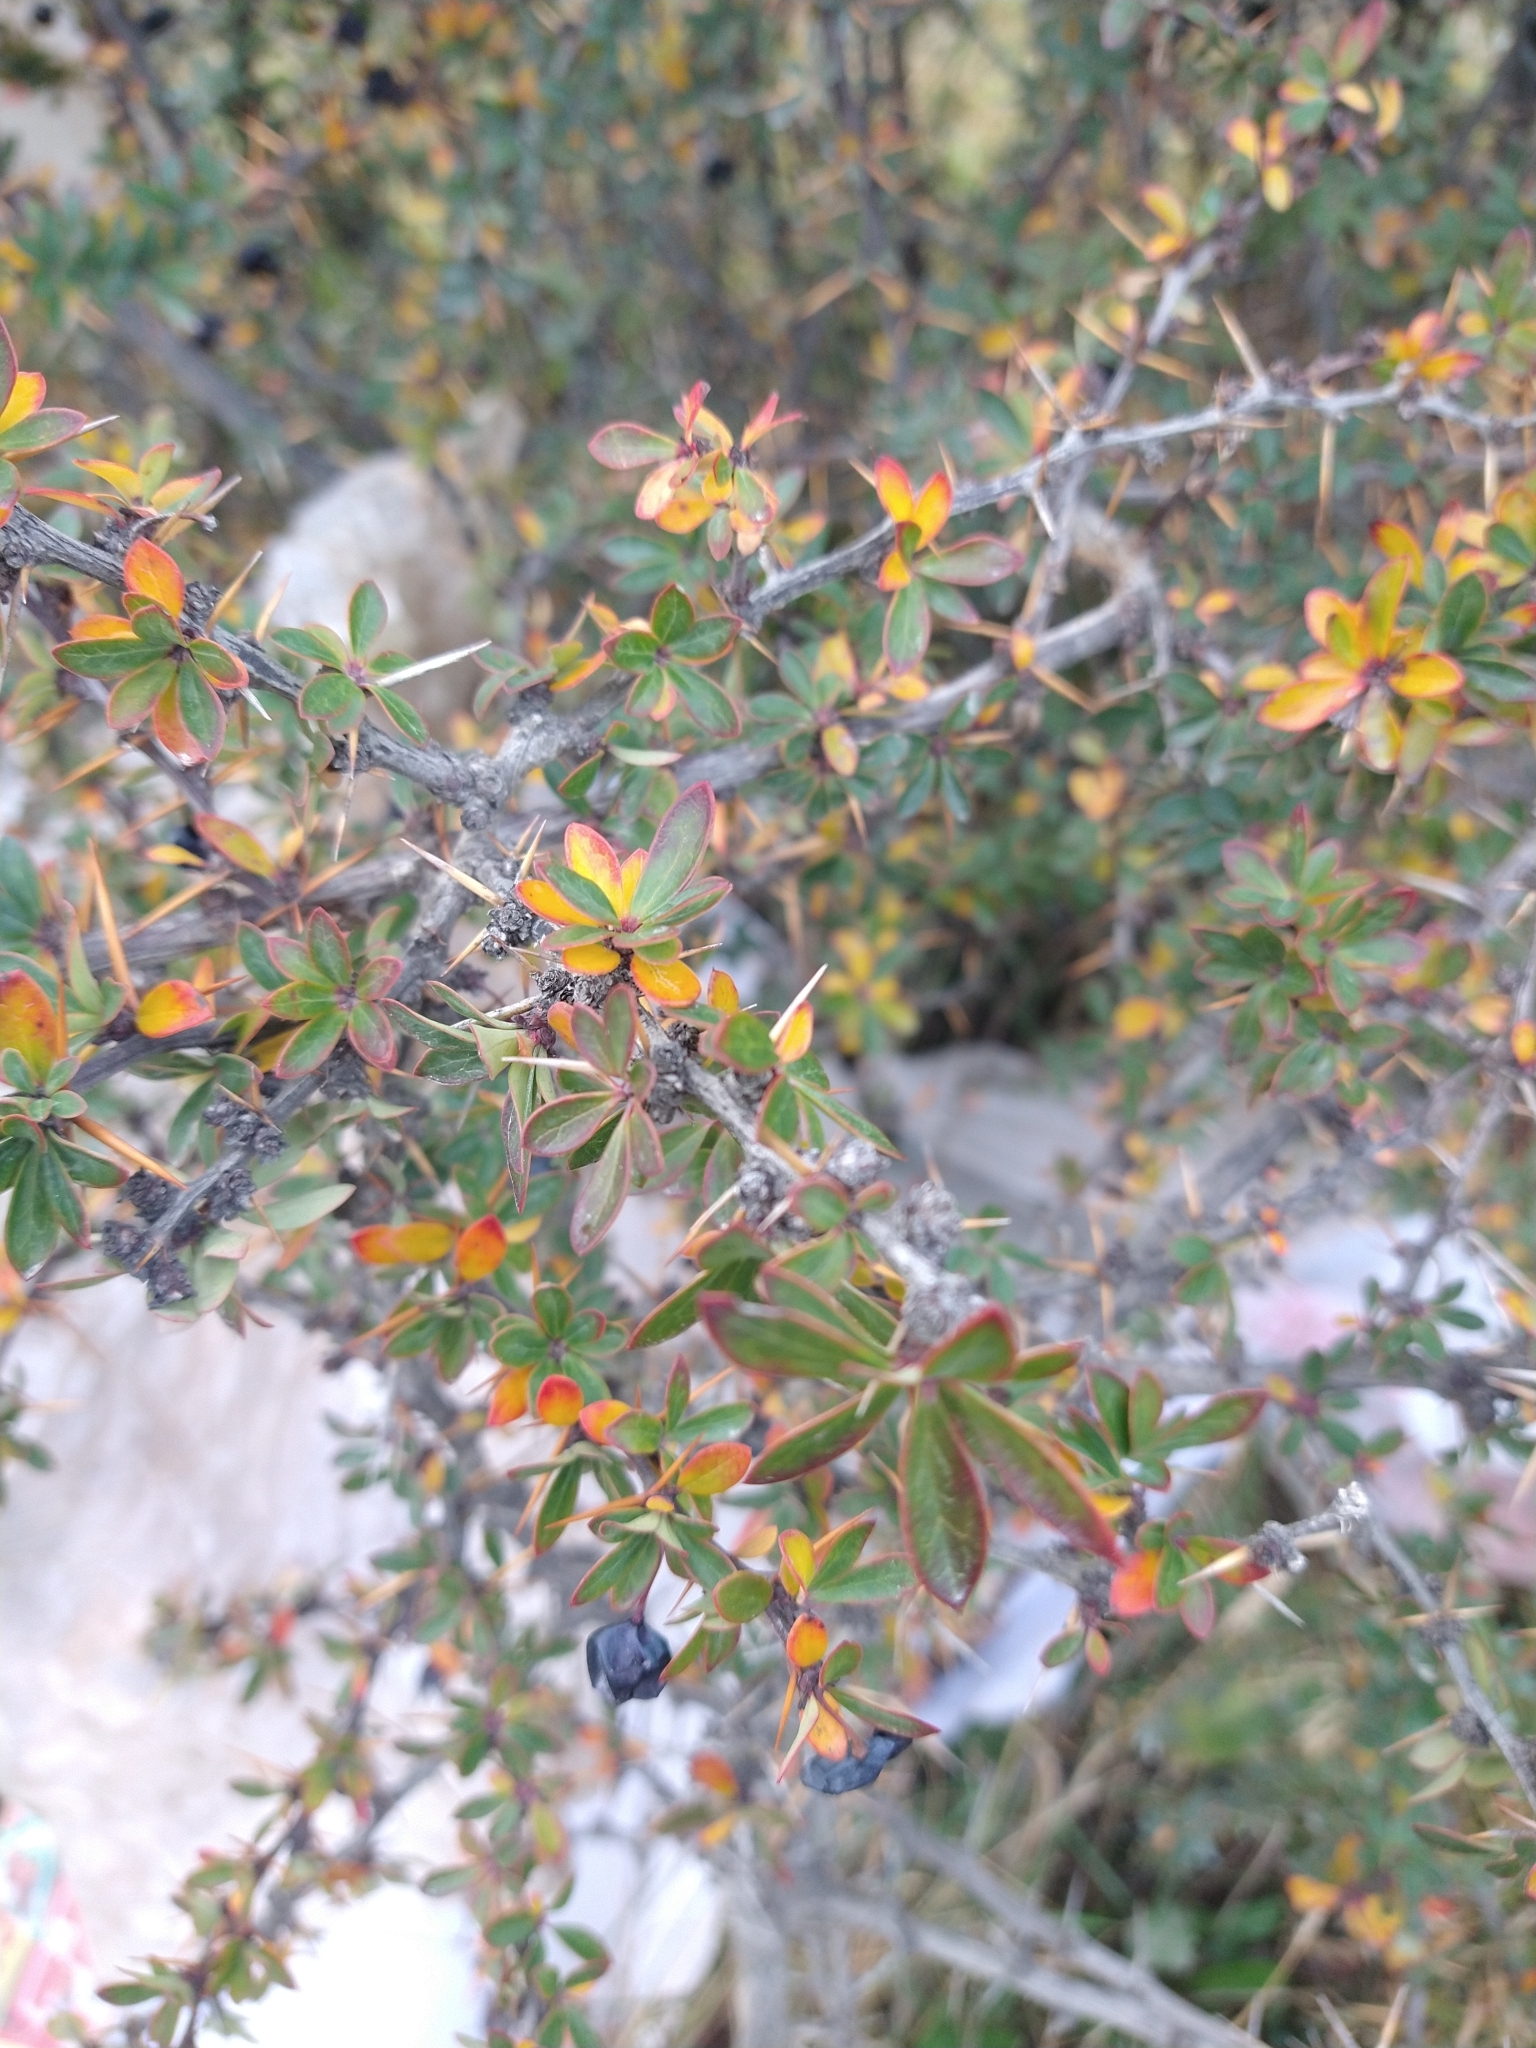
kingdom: Plantae
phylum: Tracheophyta
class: Magnoliopsida
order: Ranunculales
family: Berberidaceae
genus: Berberis
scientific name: Berberis microphylla
